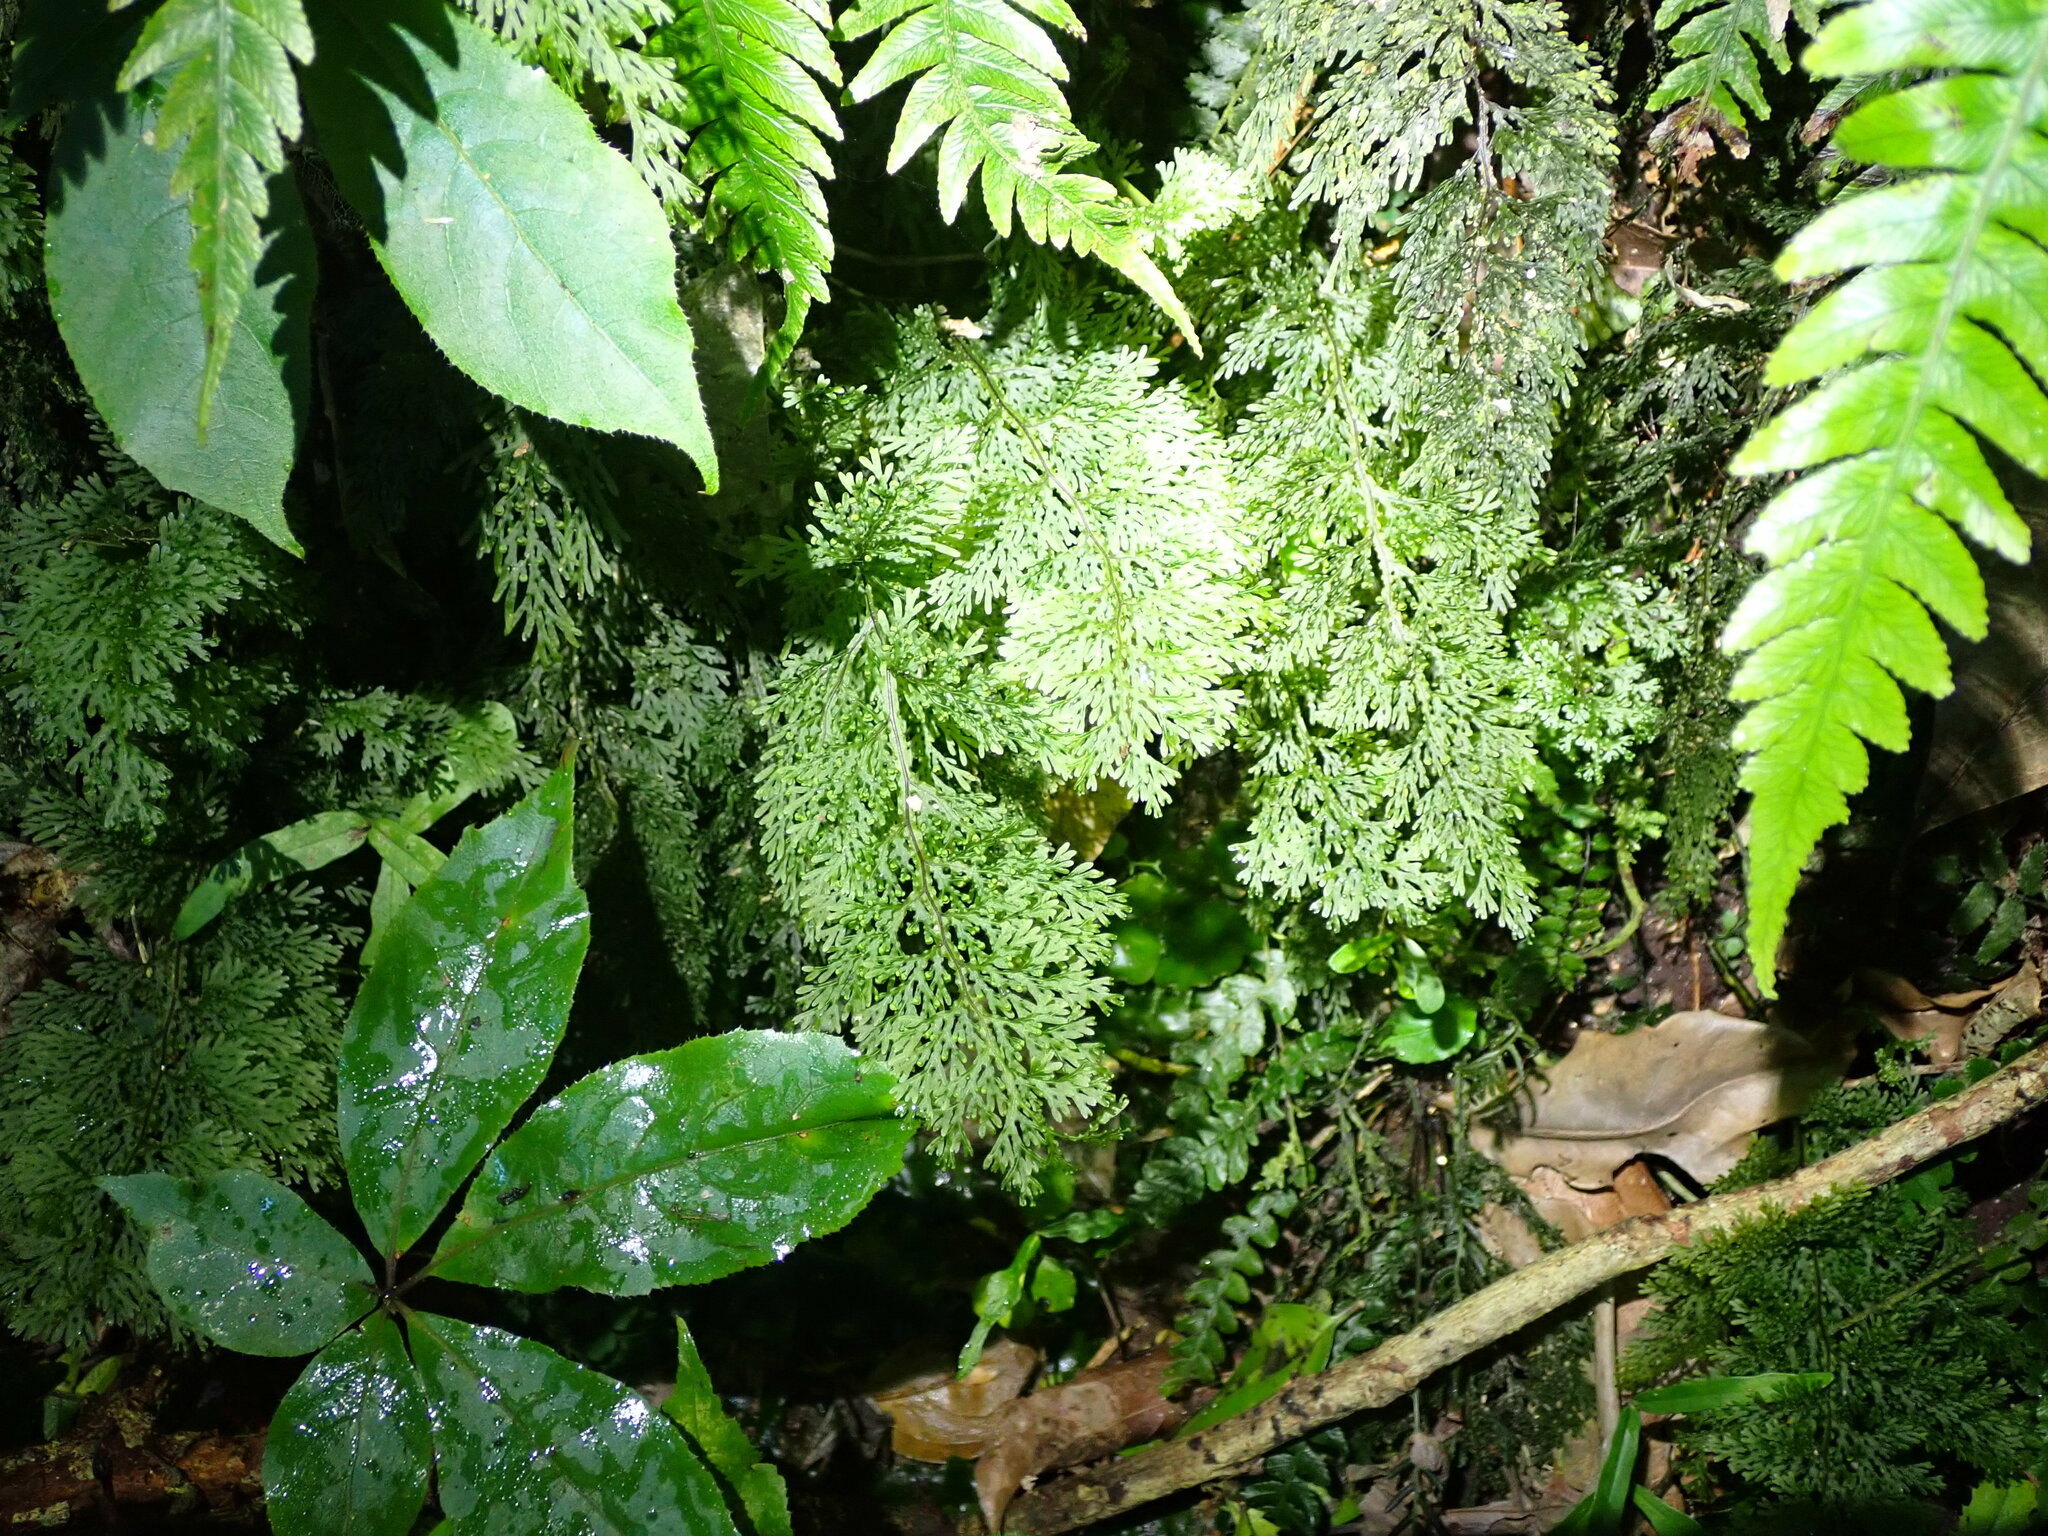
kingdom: Plantae
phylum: Tracheophyta
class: Polypodiopsida
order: Hymenophyllales
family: Hymenophyllaceae
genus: Hymenophyllum
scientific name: Hymenophyllum flexuosum
